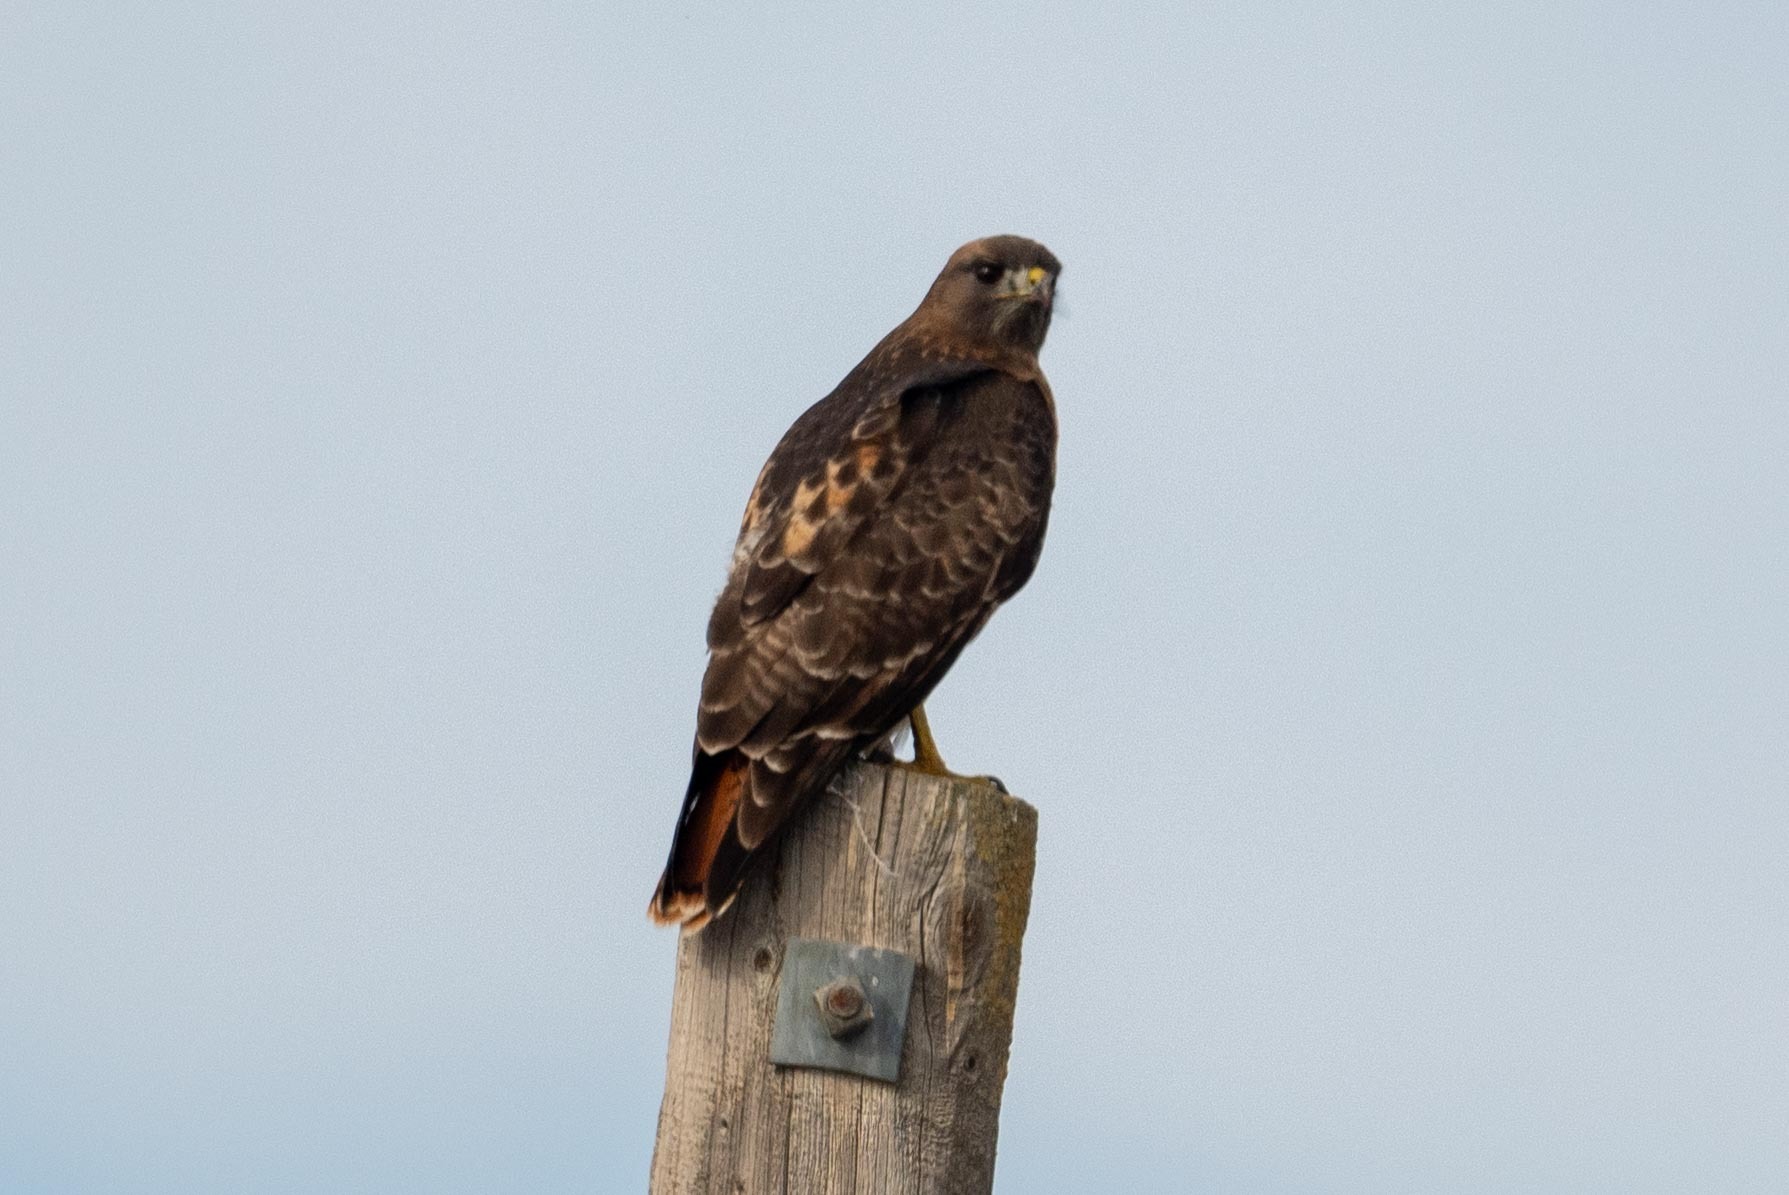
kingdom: Animalia
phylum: Chordata
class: Aves
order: Accipitriformes
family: Accipitridae
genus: Buteo
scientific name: Buteo jamaicensis
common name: Red-tailed hawk
